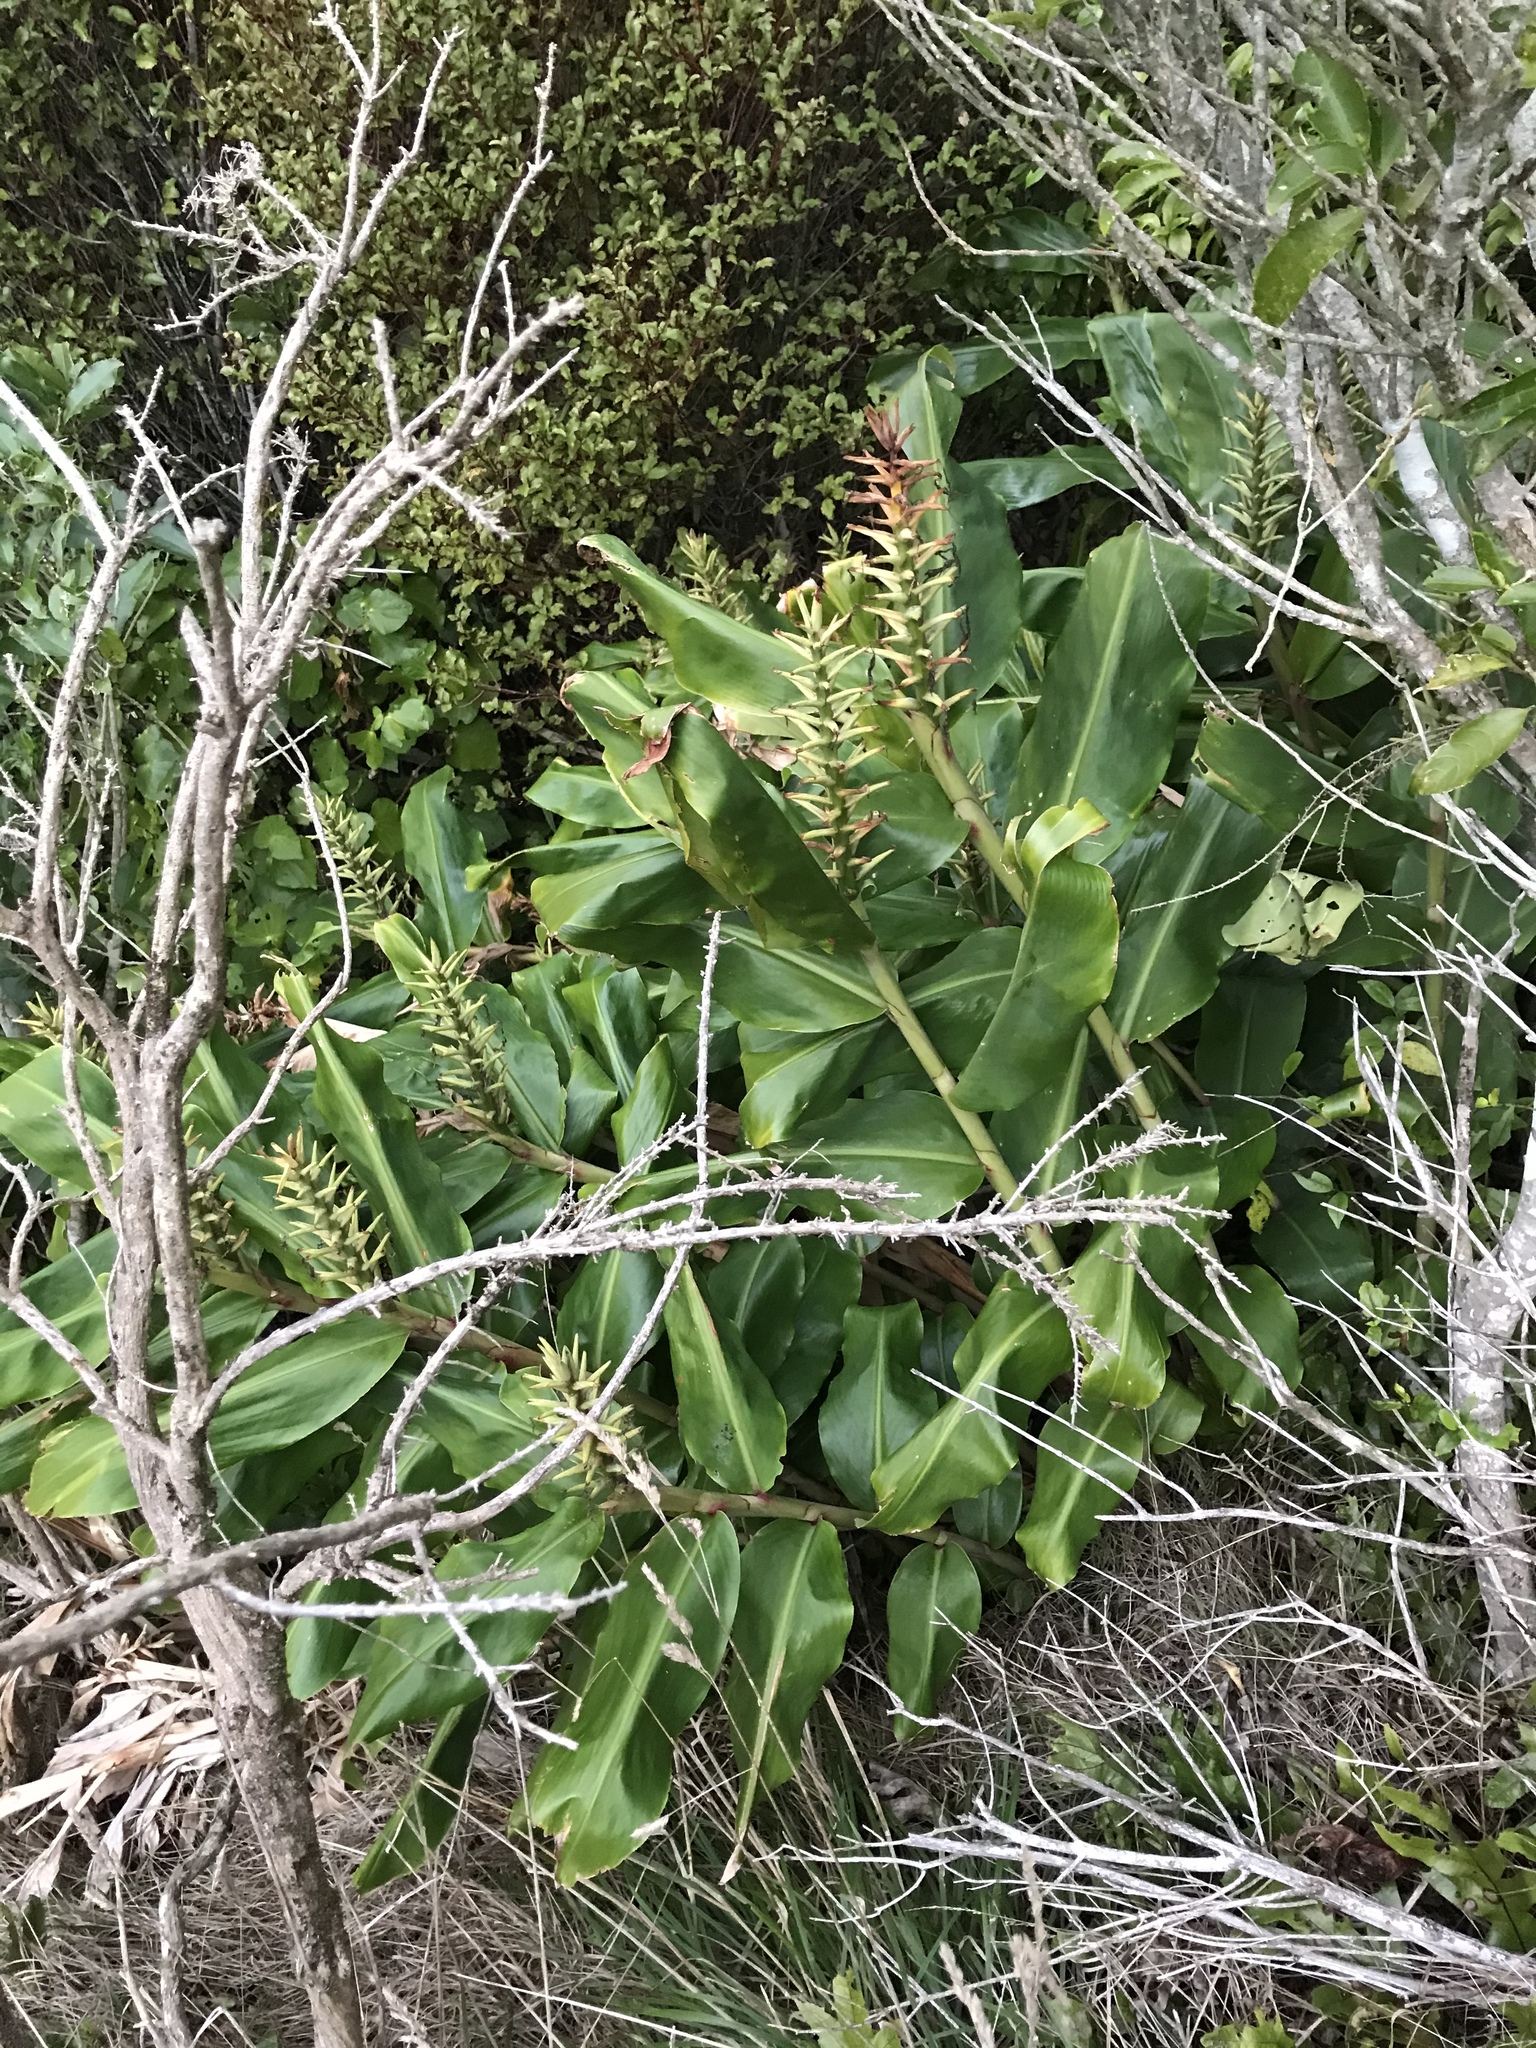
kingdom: Plantae
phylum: Tracheophyta
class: Liliopsida
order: Zingiberales
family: Zingiberaceae
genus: Hedychium
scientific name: Hedychium gardnerianum
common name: Himalayan ginger
